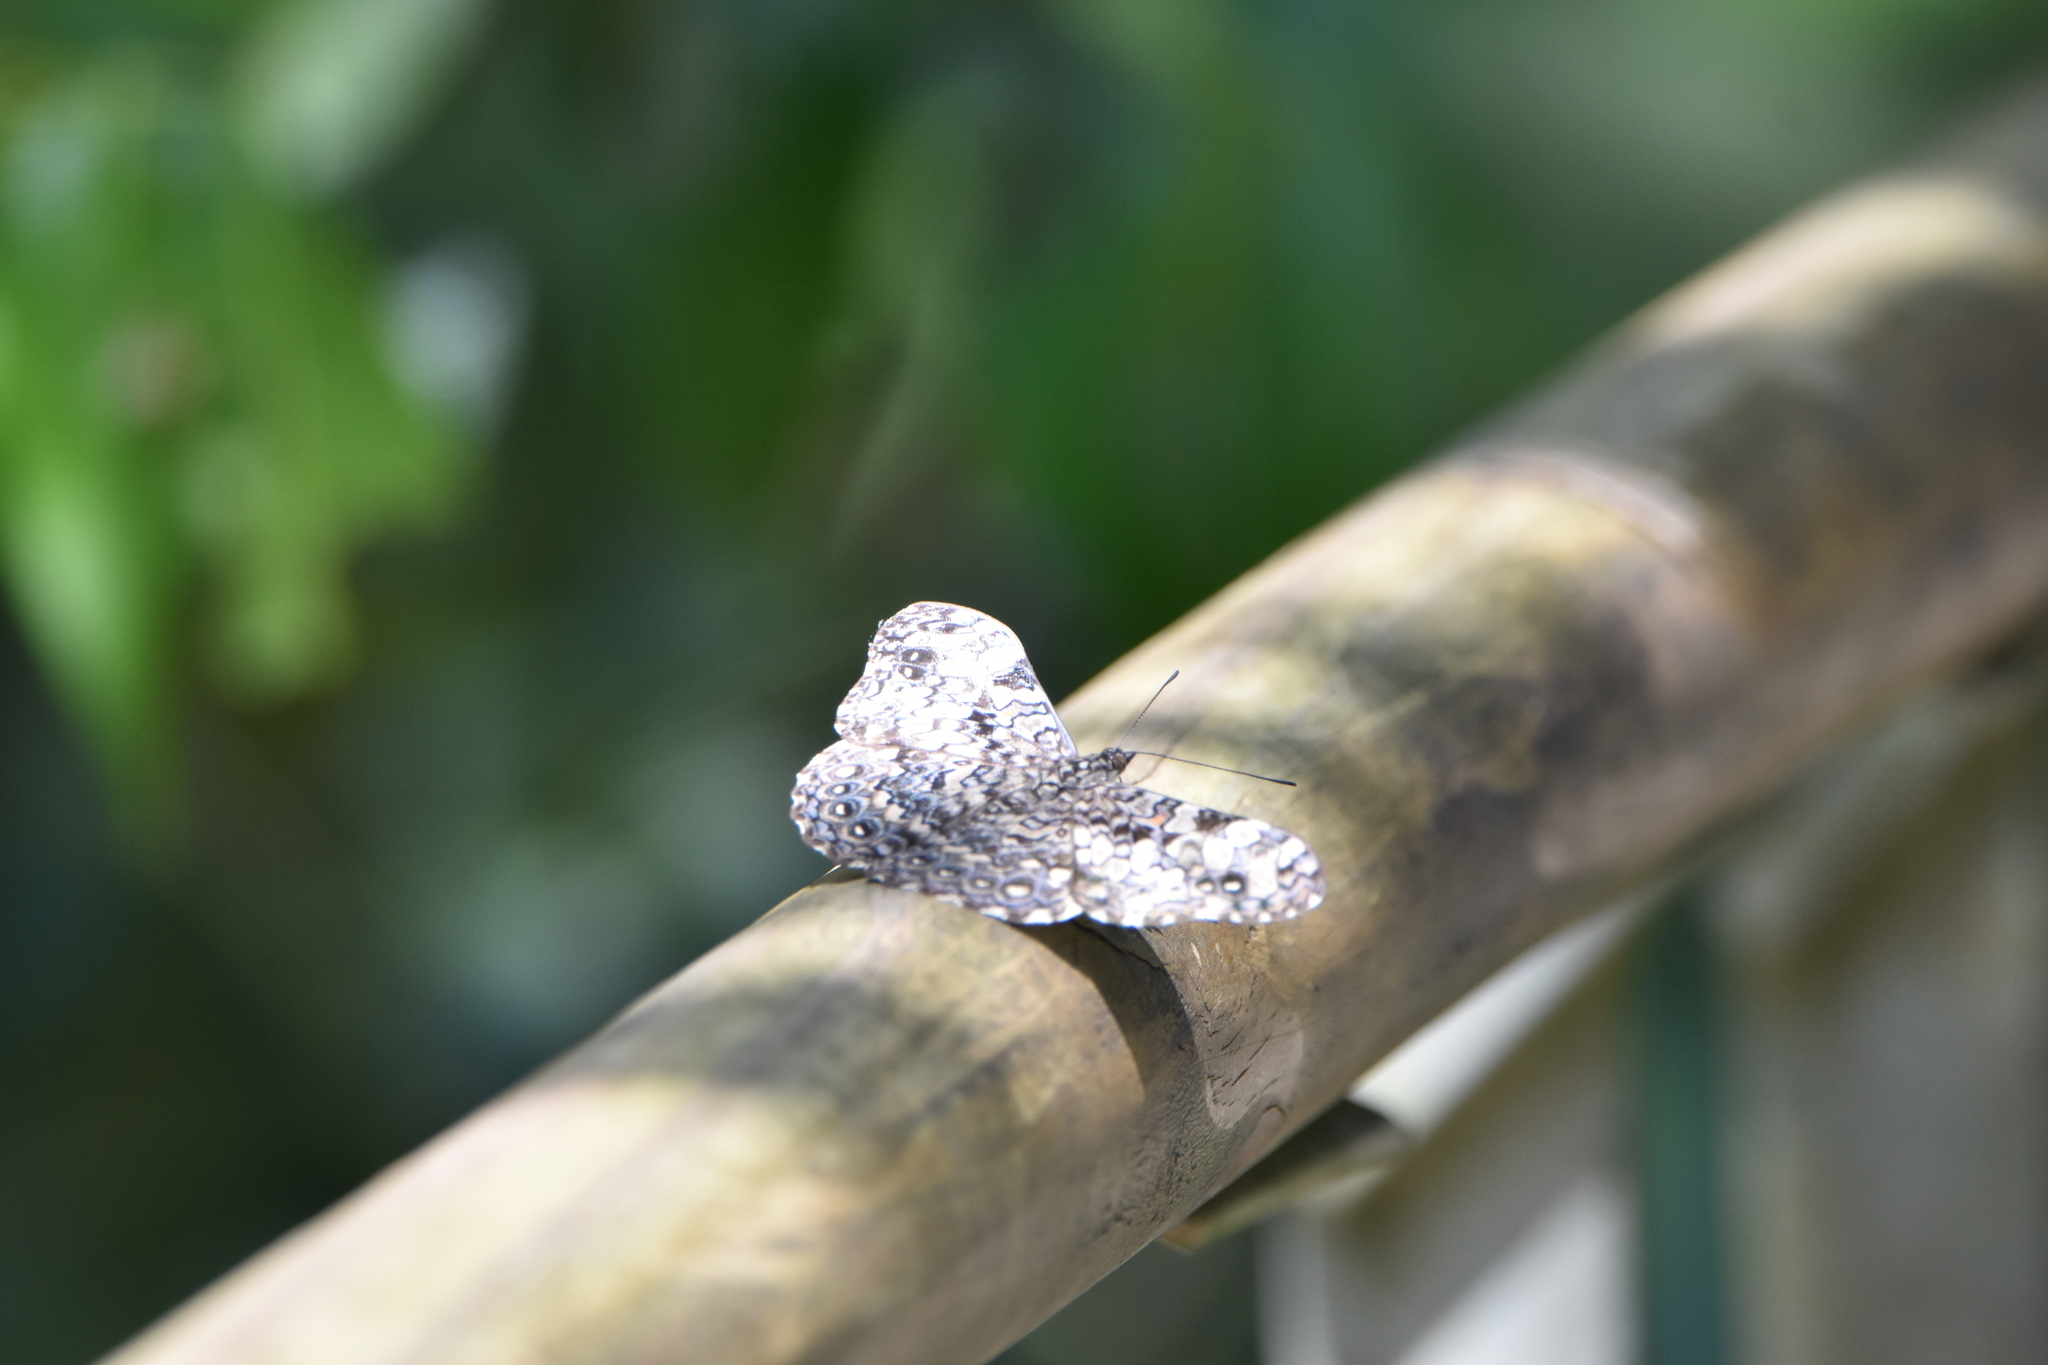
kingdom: Animalia
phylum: Arthropoda
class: Insecta
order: Lepidoptera
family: Nymphalidae
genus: Hamadryas
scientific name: Hamadryas epinome
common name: Epinome cracker
